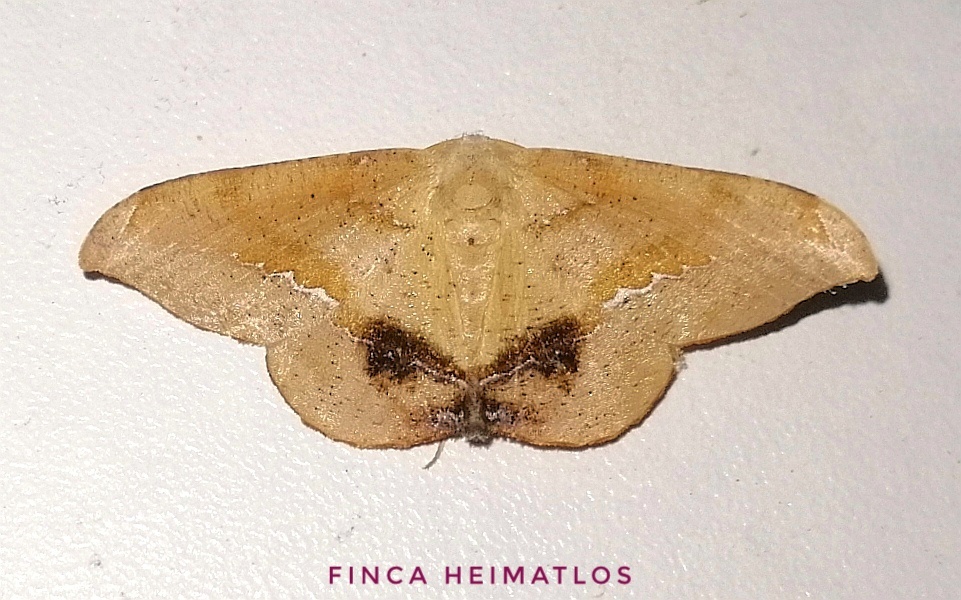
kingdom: Animalia
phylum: Arthropoda
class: Insecta
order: Lepidoptera
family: Geometridae
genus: Patalene
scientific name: Patalene asychisaria
